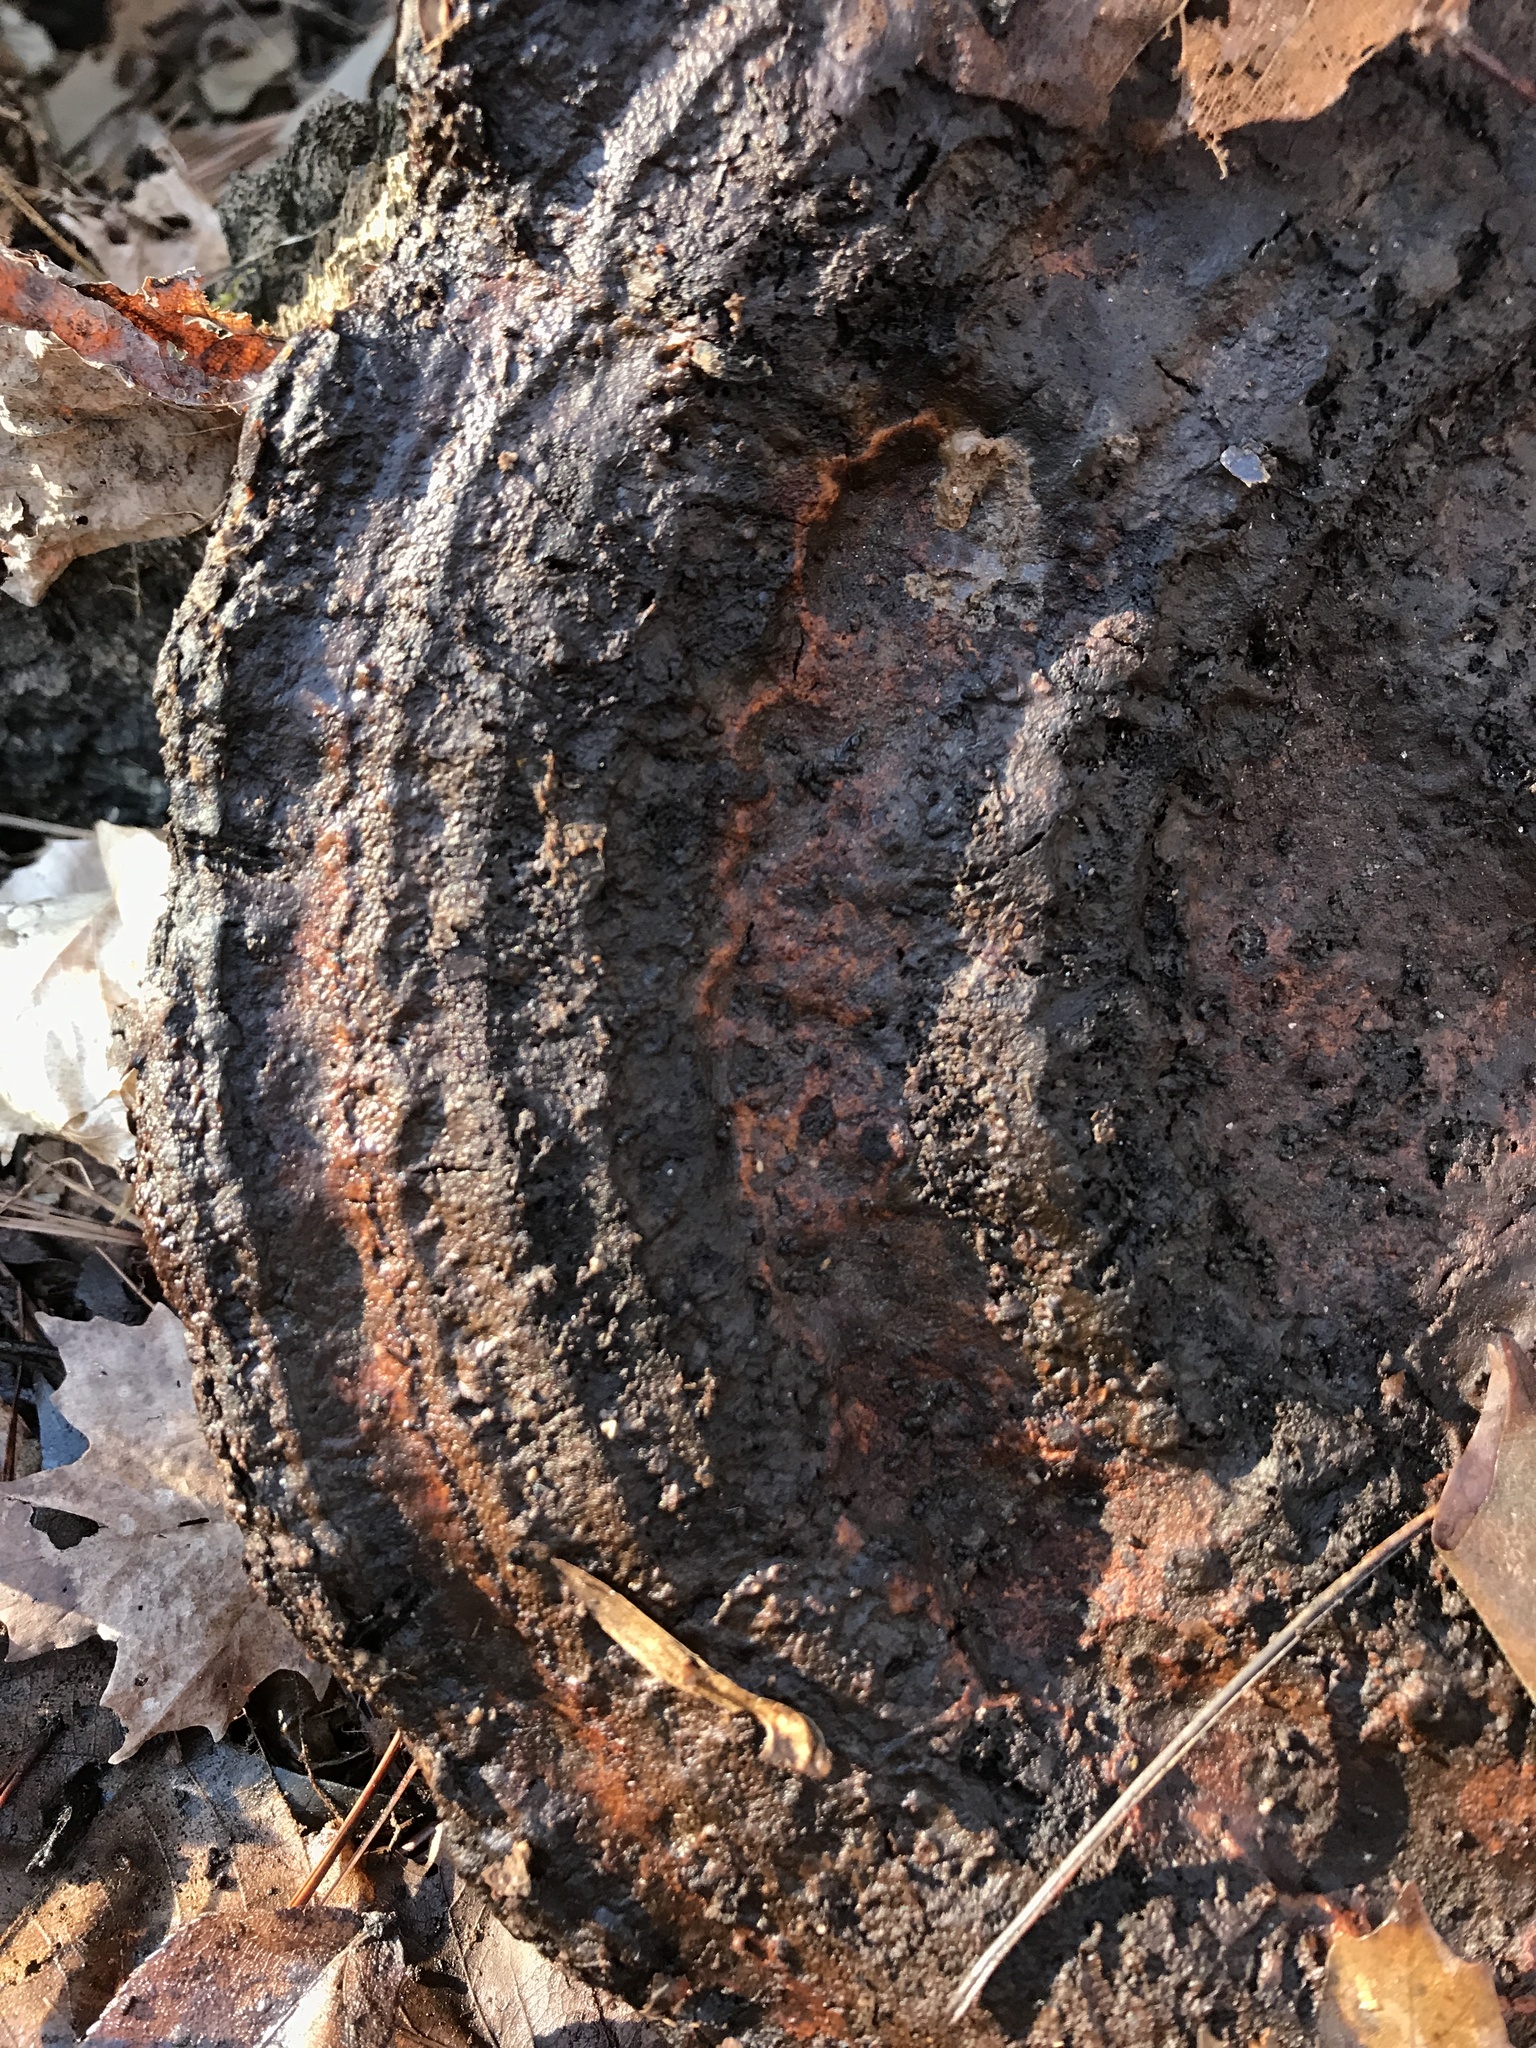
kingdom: Fungi
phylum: Basidiomycota
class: Agaricomycetes
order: Polyporales
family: Polyporaceae
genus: Ganoderma
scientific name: Ganoderma resinaceum
